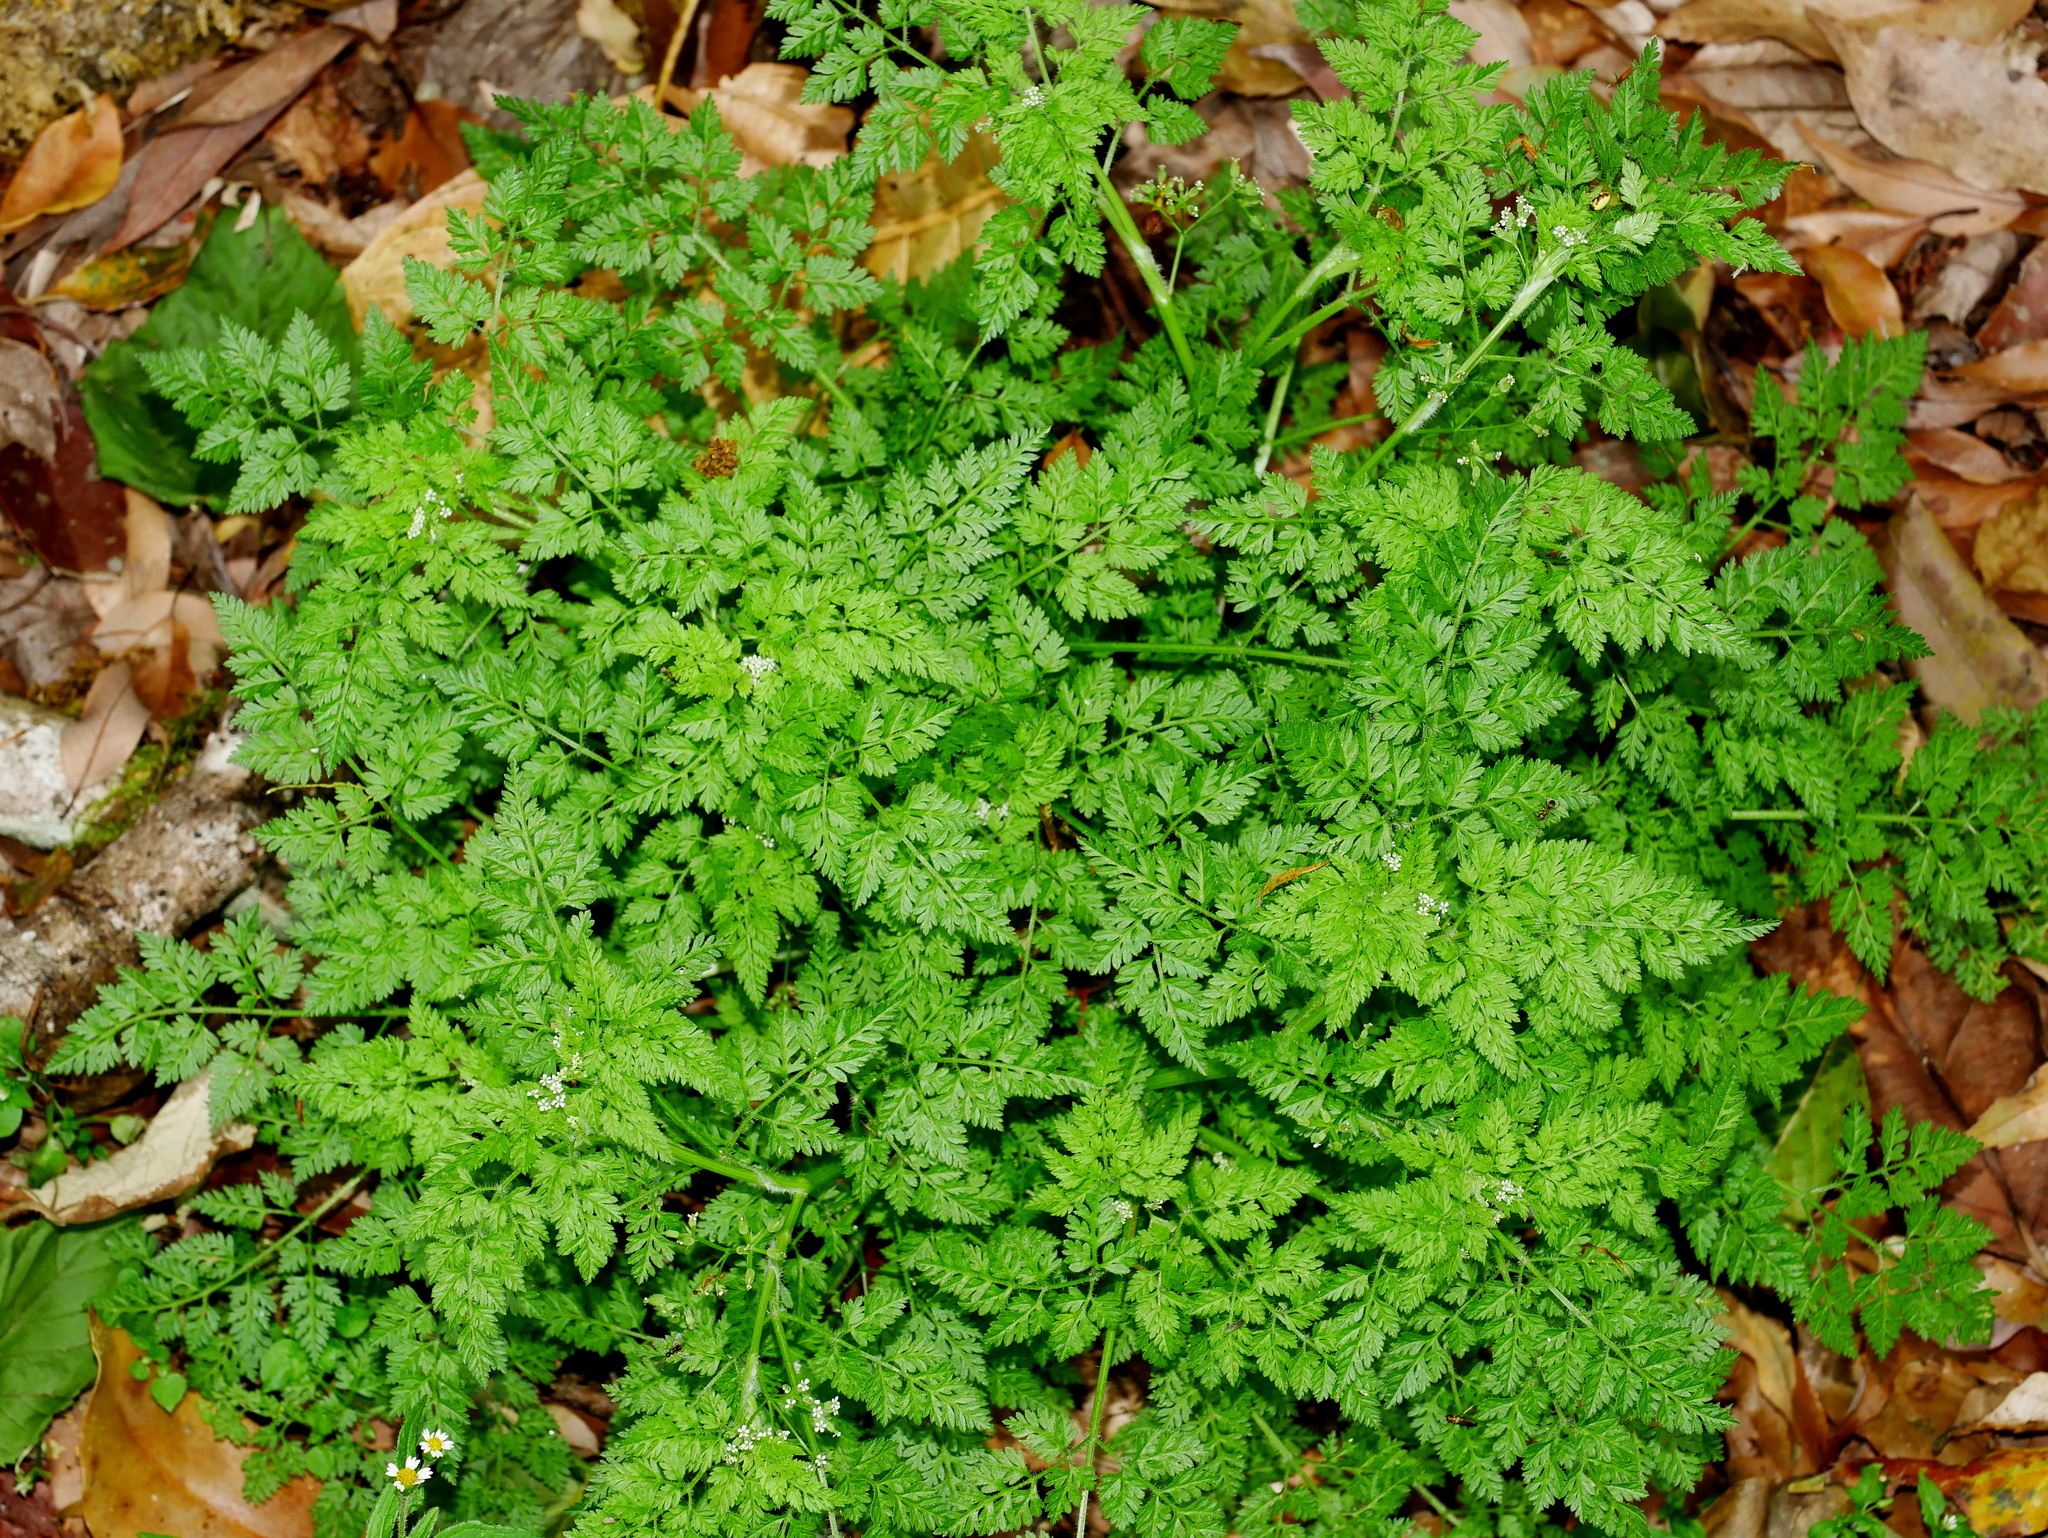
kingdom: Plantae
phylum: Tracheophyta
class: Magnoliopsida
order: Apiales
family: Apiaceae
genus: Anthriscus
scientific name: Anthriscus caucalis
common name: Bur chervil
